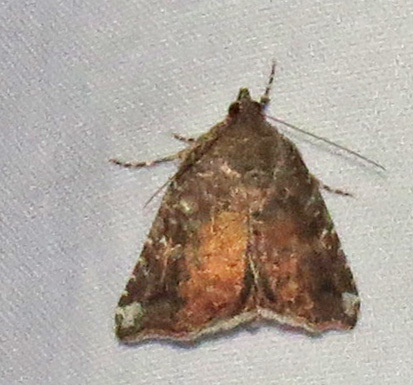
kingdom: Animalia
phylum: Arthropoda
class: Insecta
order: Lepidoptera
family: Noctuidae
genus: Amyna
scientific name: Amyna bullula
